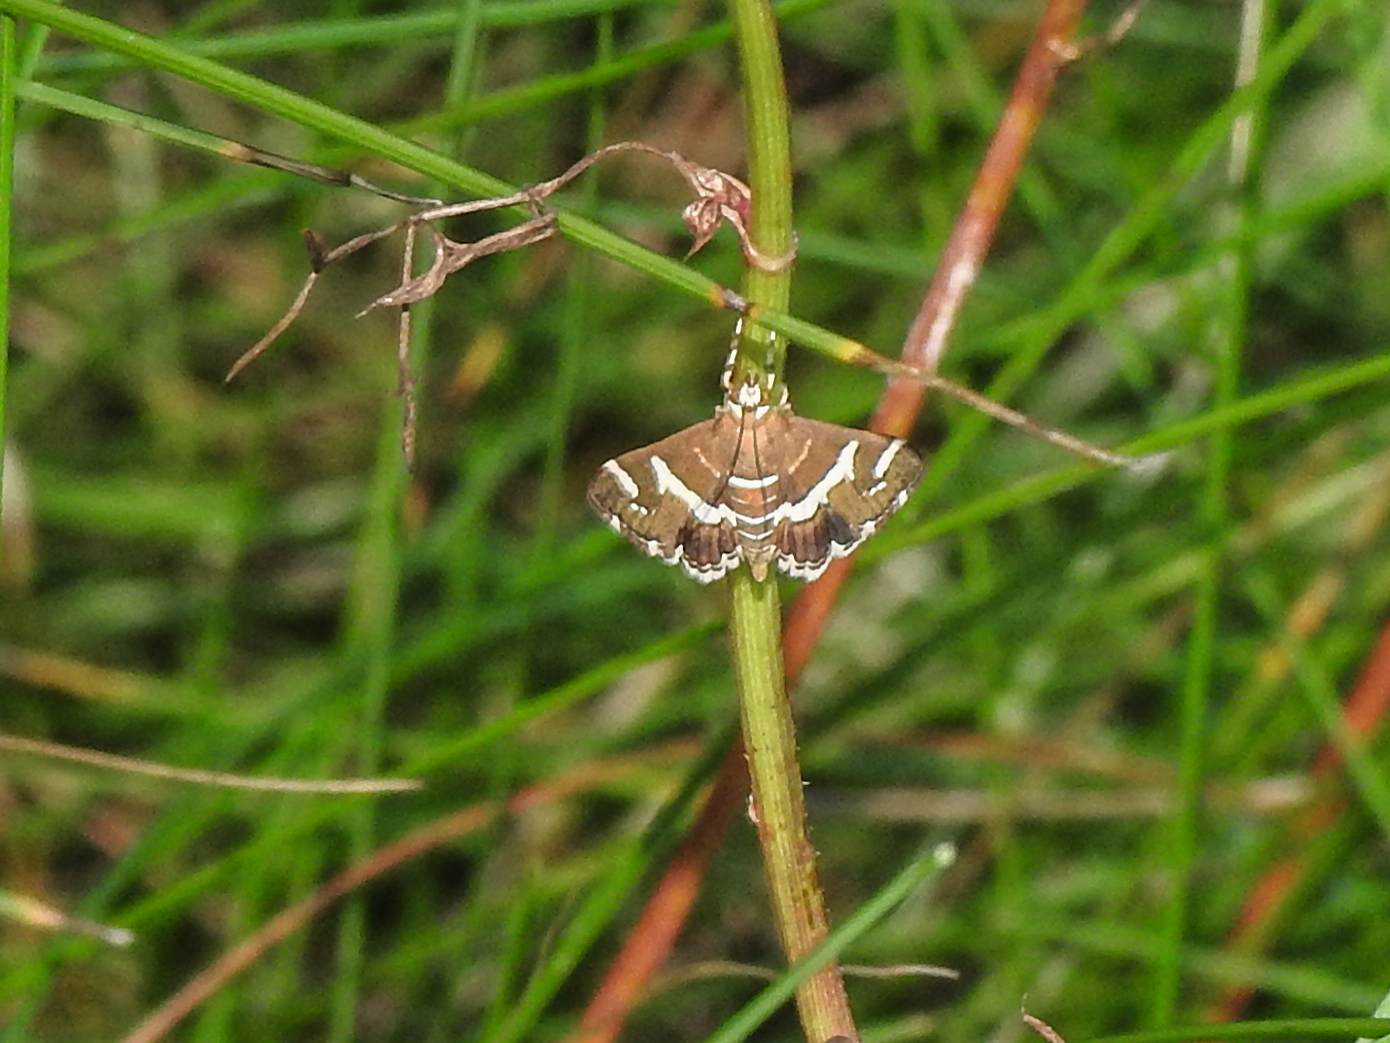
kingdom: Animalia
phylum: Arthropoda
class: Insecta
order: Lepidoptera
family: Crambidae
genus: Spoladea
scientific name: Spoladea recurvalis
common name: Beet webworm moth
